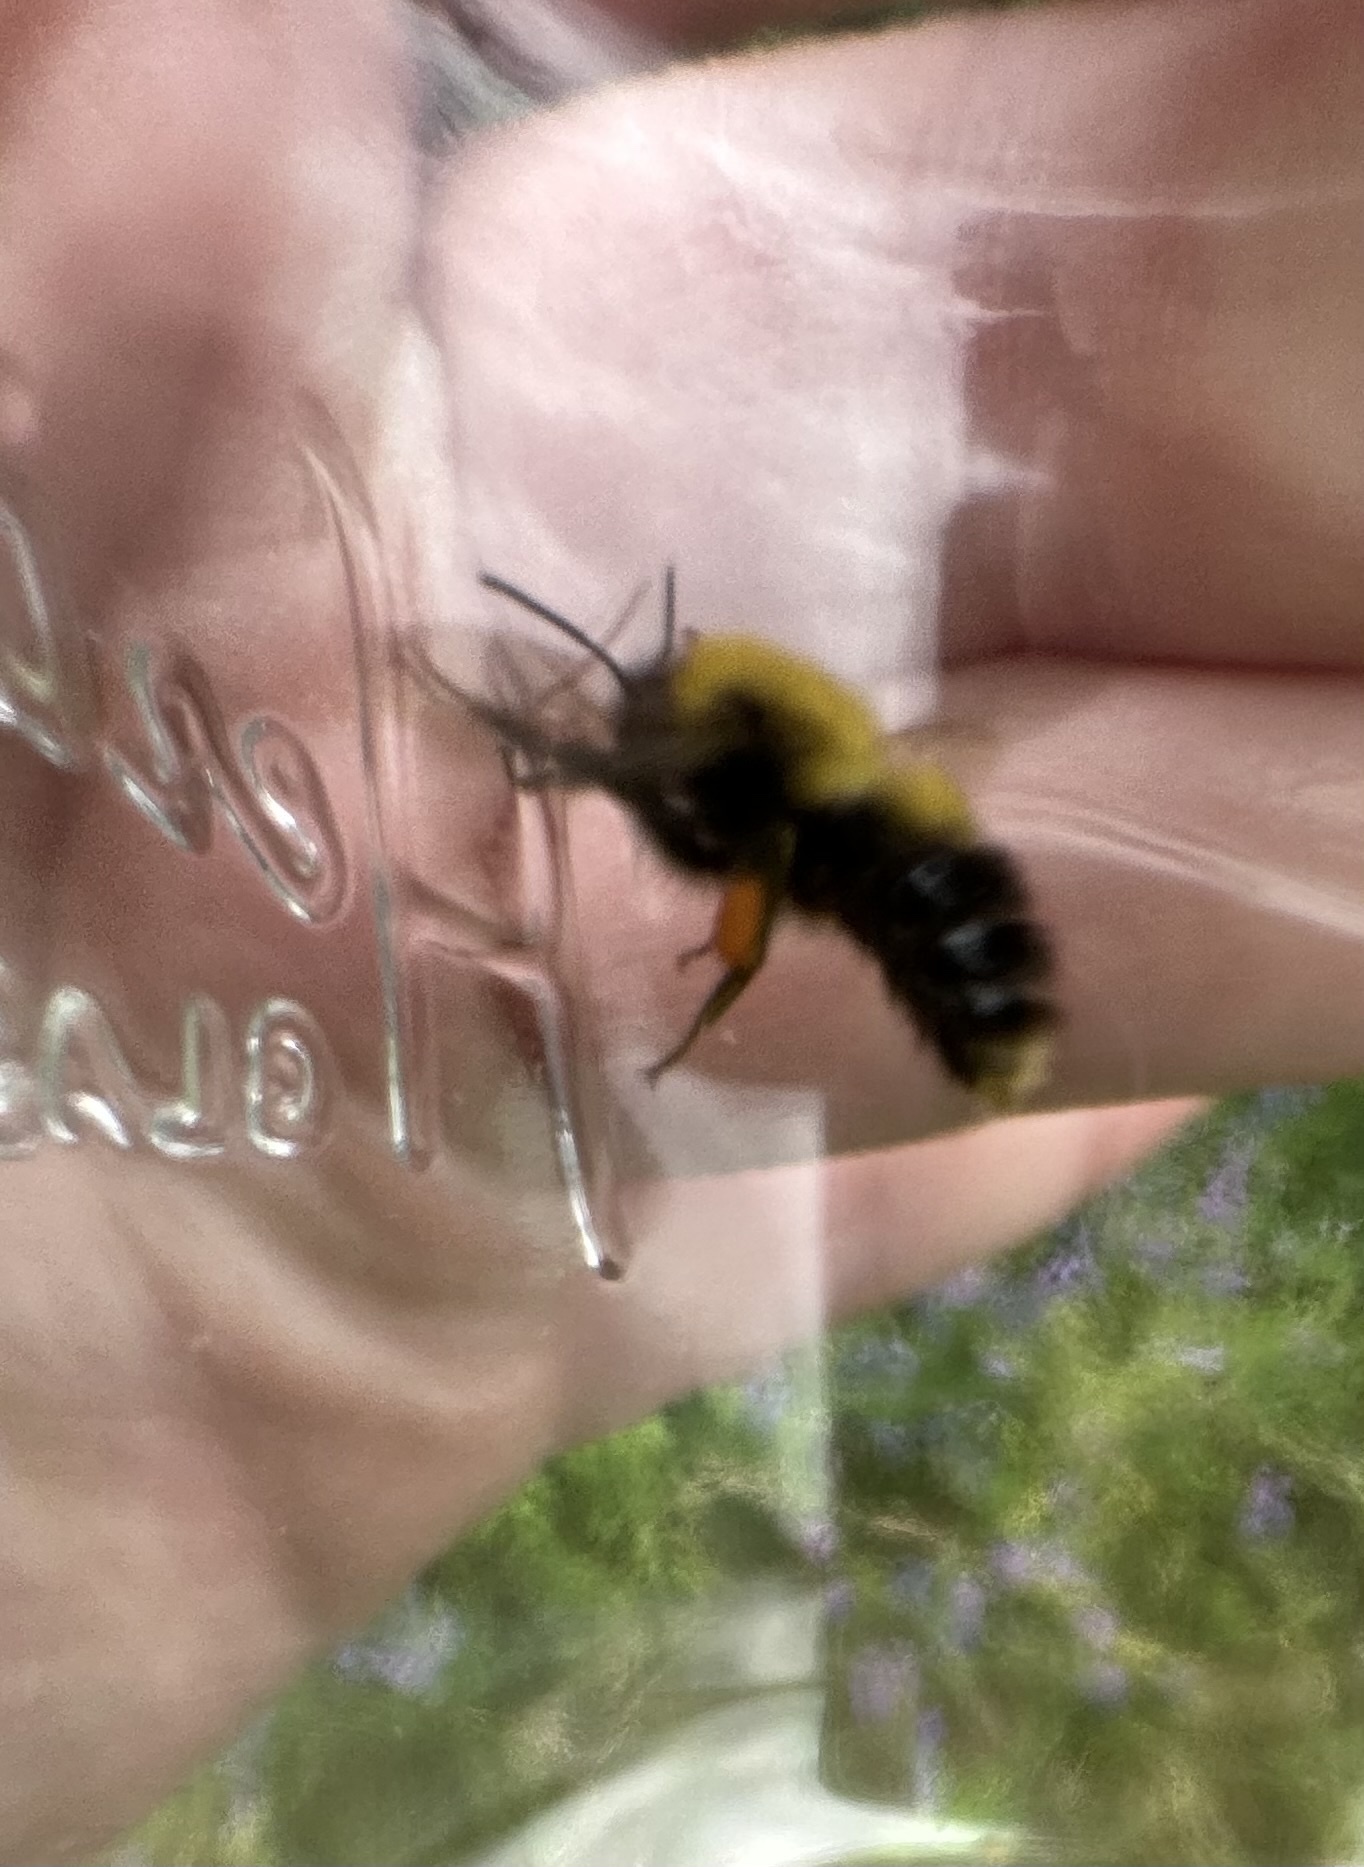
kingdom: Animalia
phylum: Arthropoda
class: Insecta
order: Hymenoptera
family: Apidae
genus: Bombus
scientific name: Bombus perplexus
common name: Confusing bumble bee
